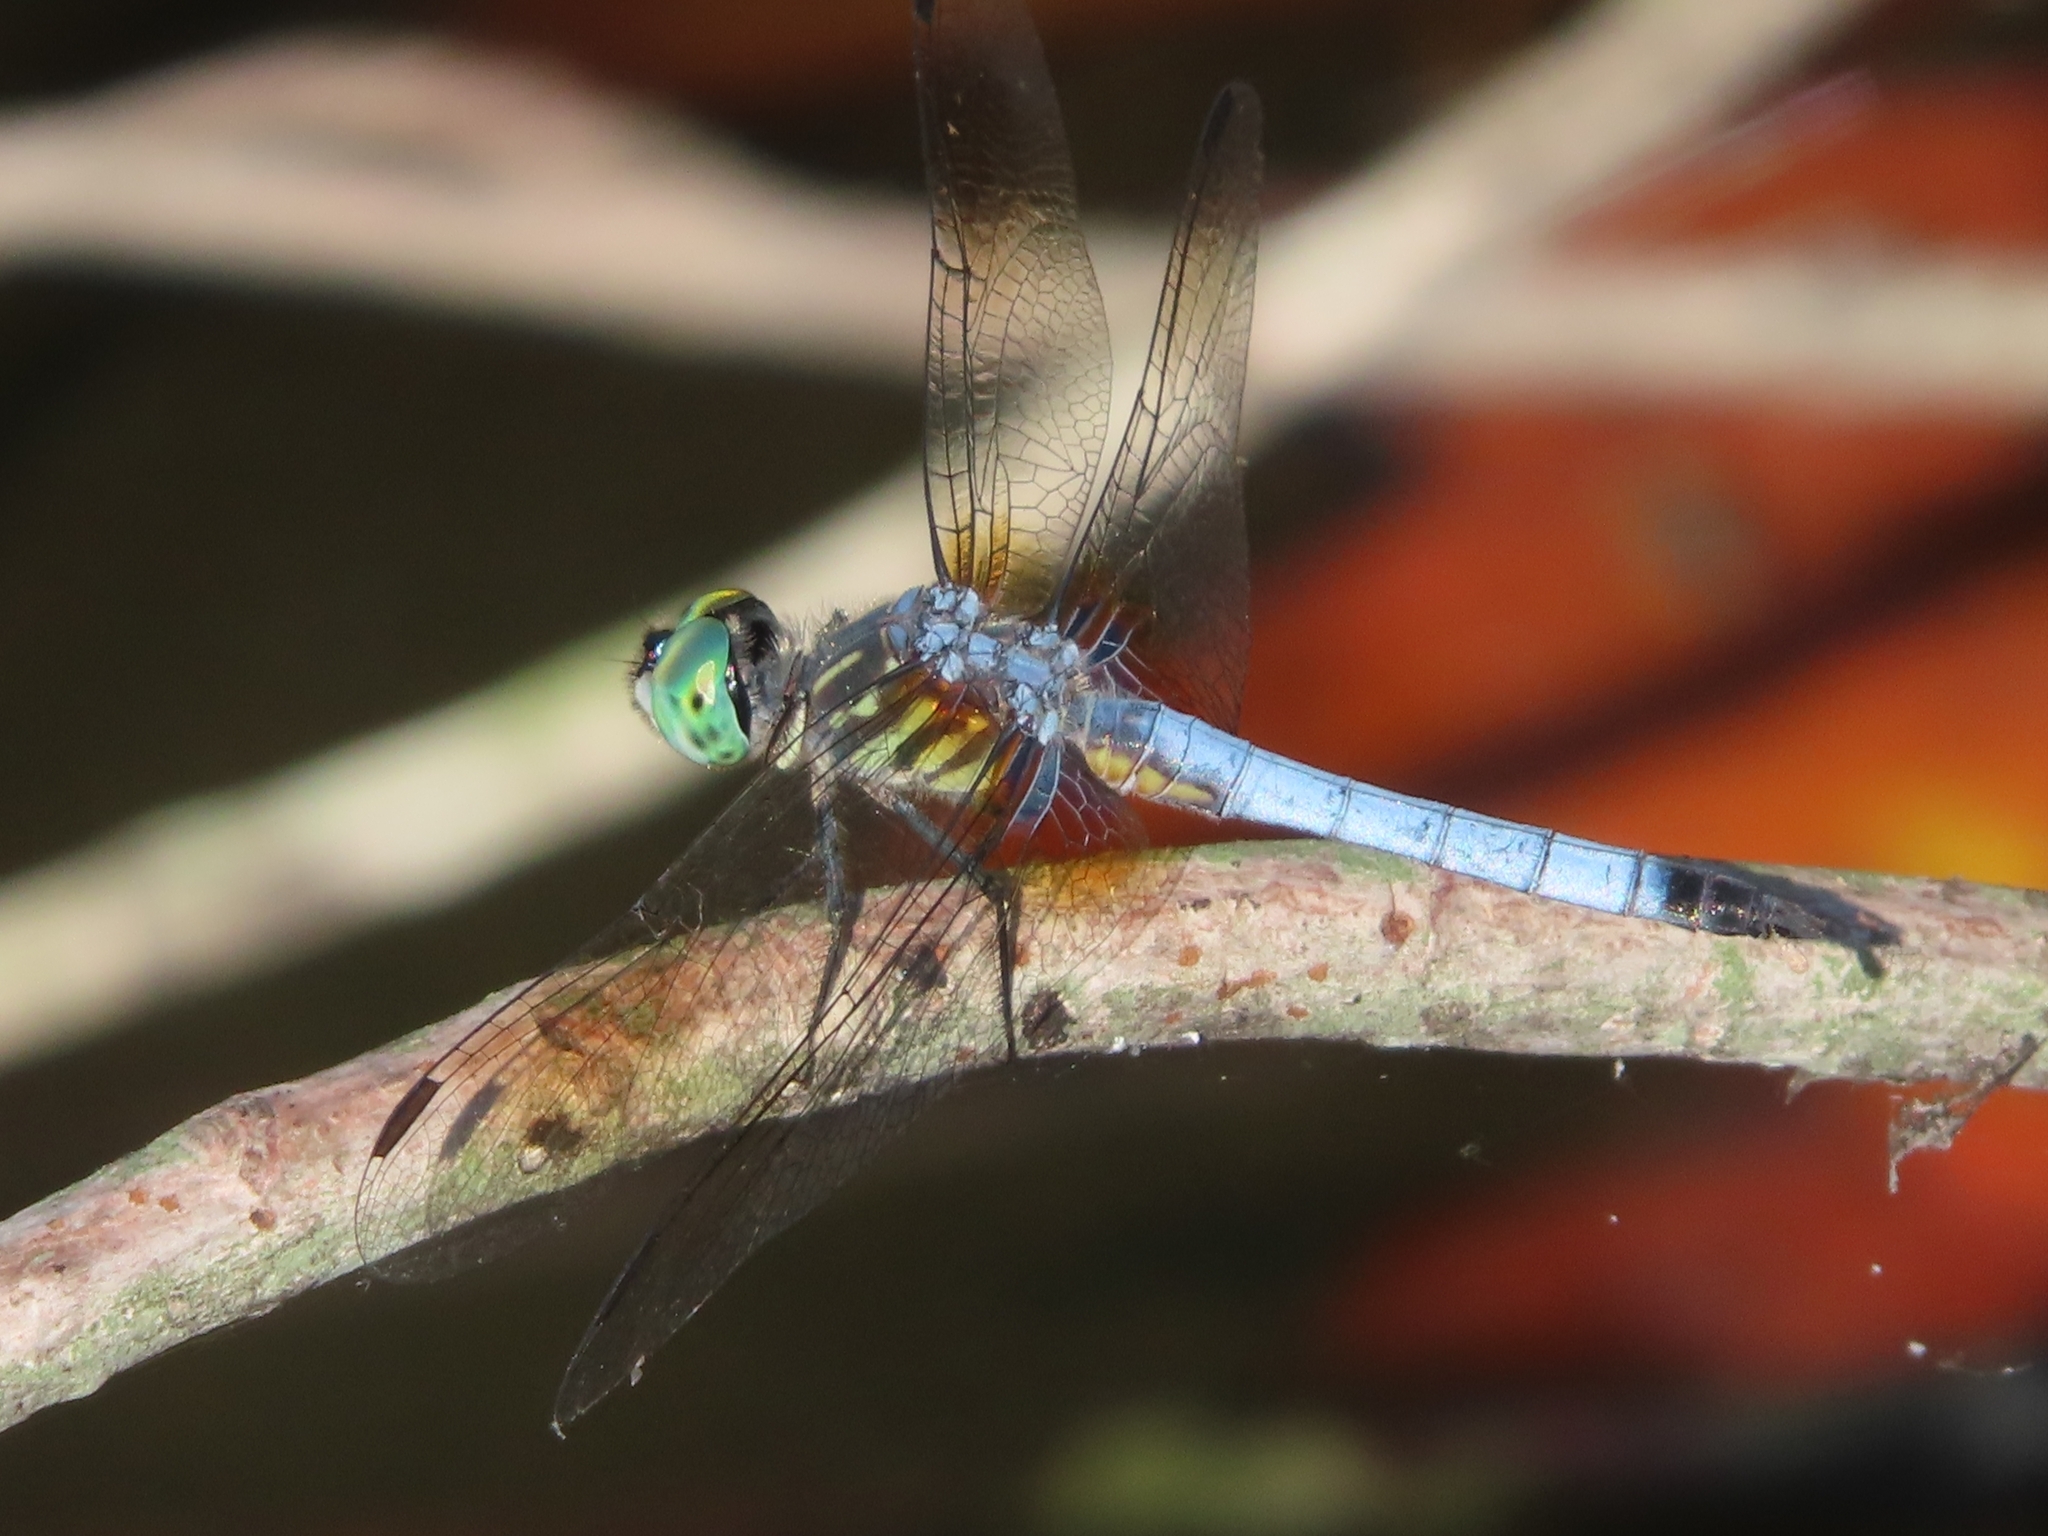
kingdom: Animalia
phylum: Arthropoda
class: Insecta
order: Odonata
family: Libellulidae
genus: Pachydiplax
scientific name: Pachydiplax longipennis
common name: Blue dasher
